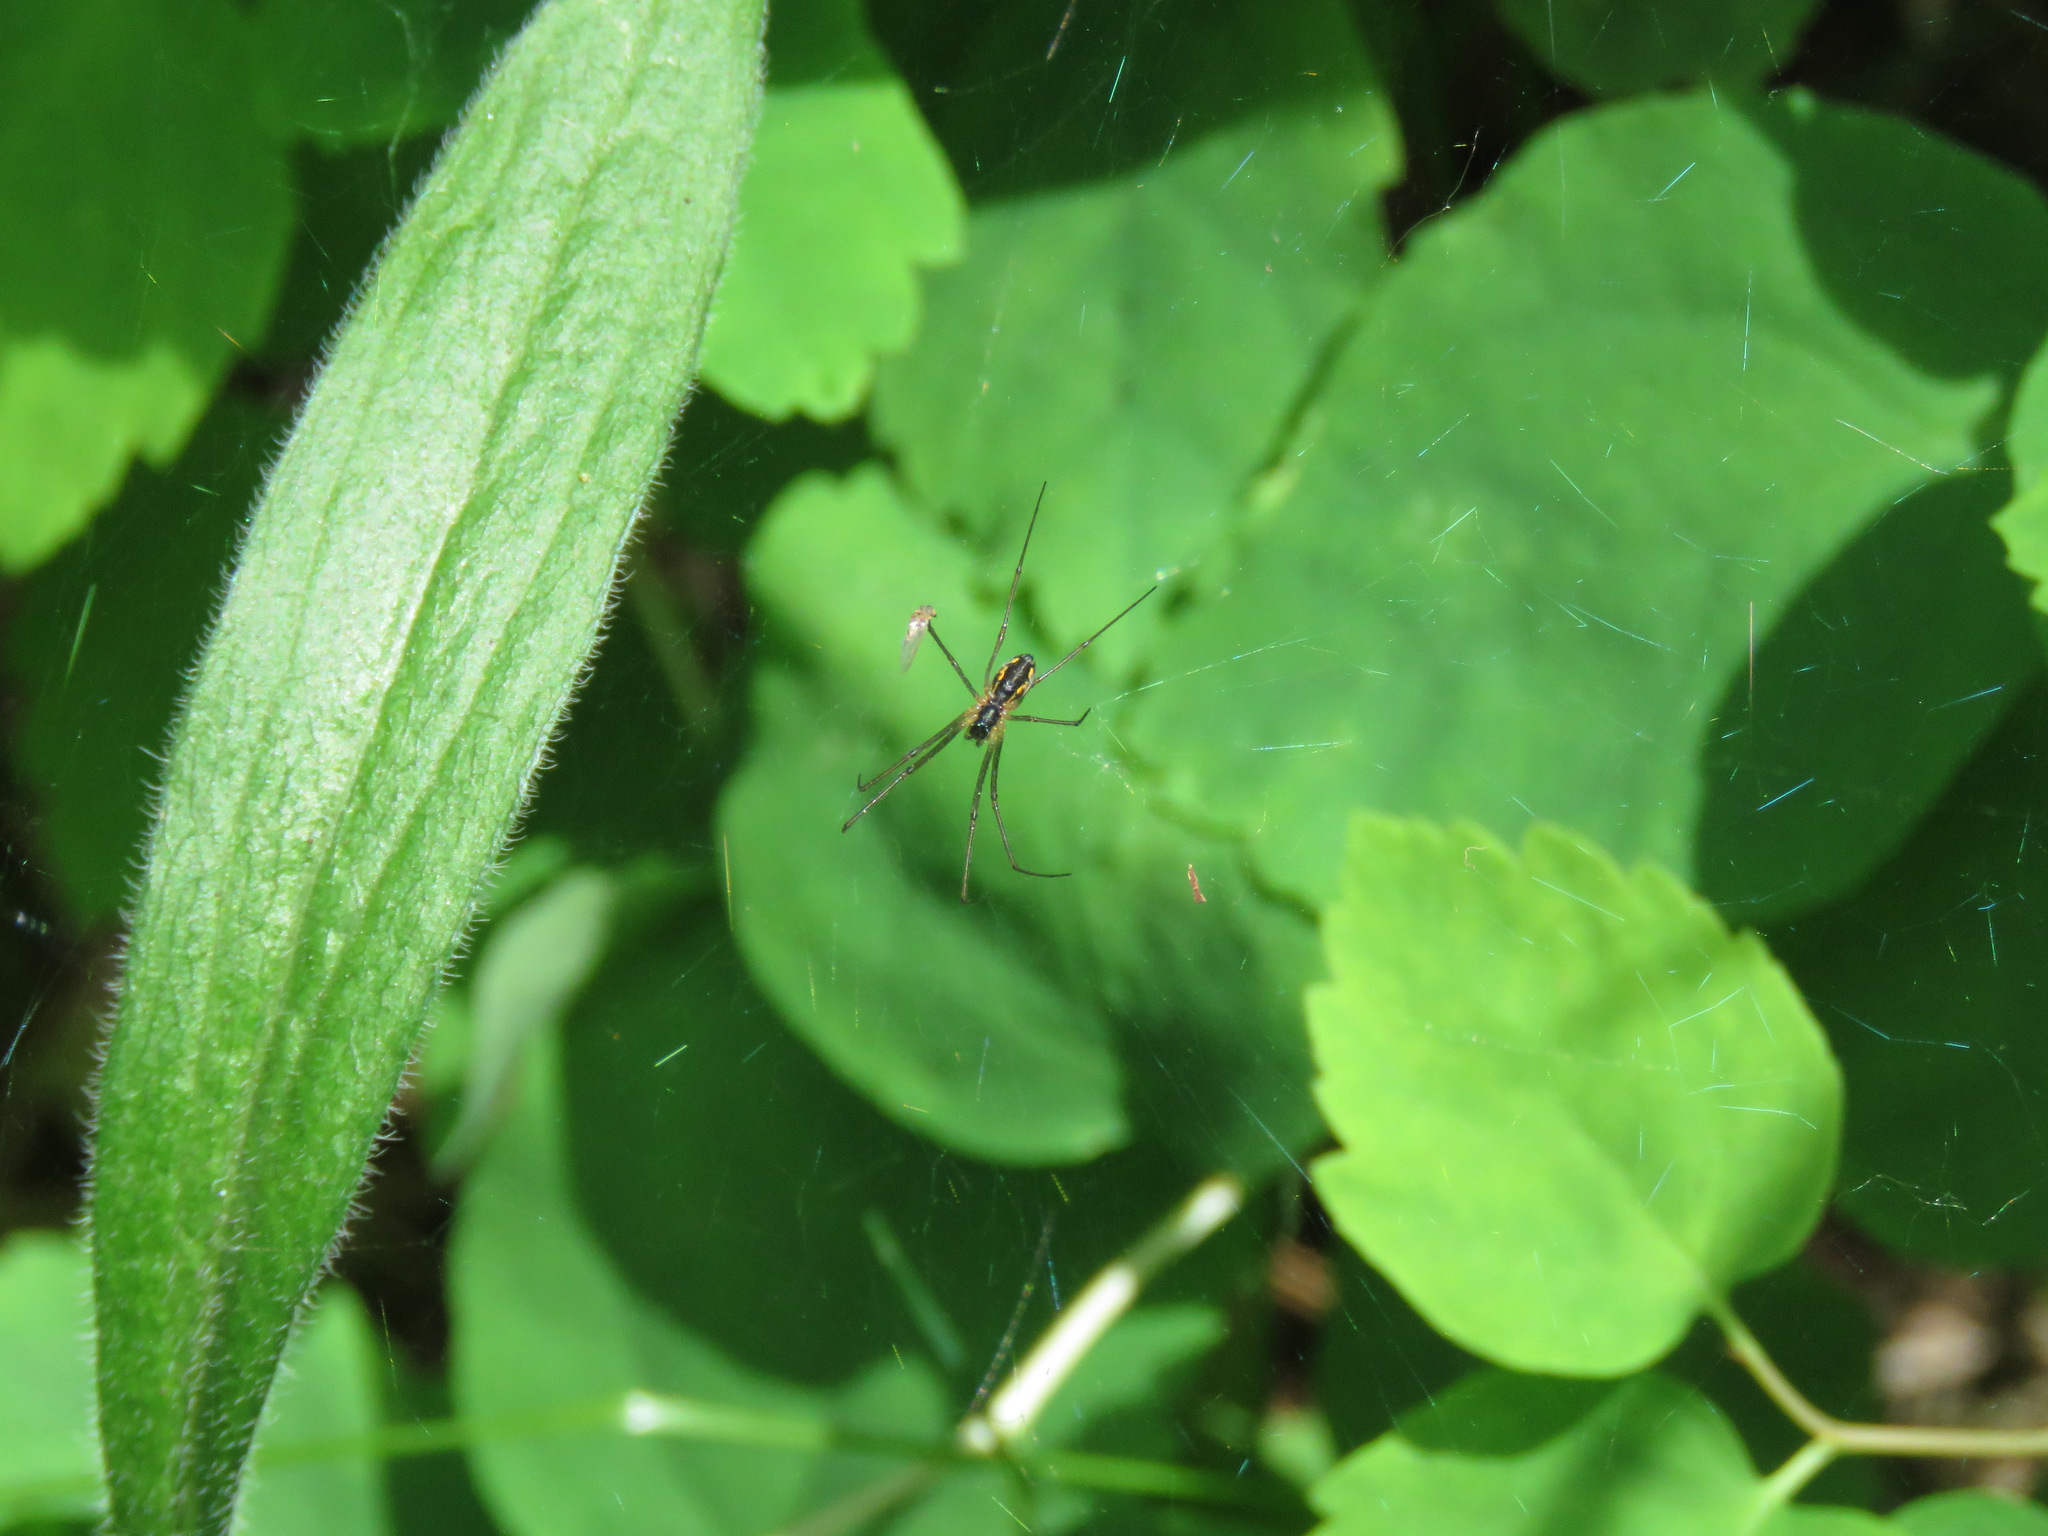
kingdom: Animalia
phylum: Arthropoda
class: Arachnida
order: Araneae
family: Linyphiidae
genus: Neriene
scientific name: Neriene radiata
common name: Filmy dome spider
